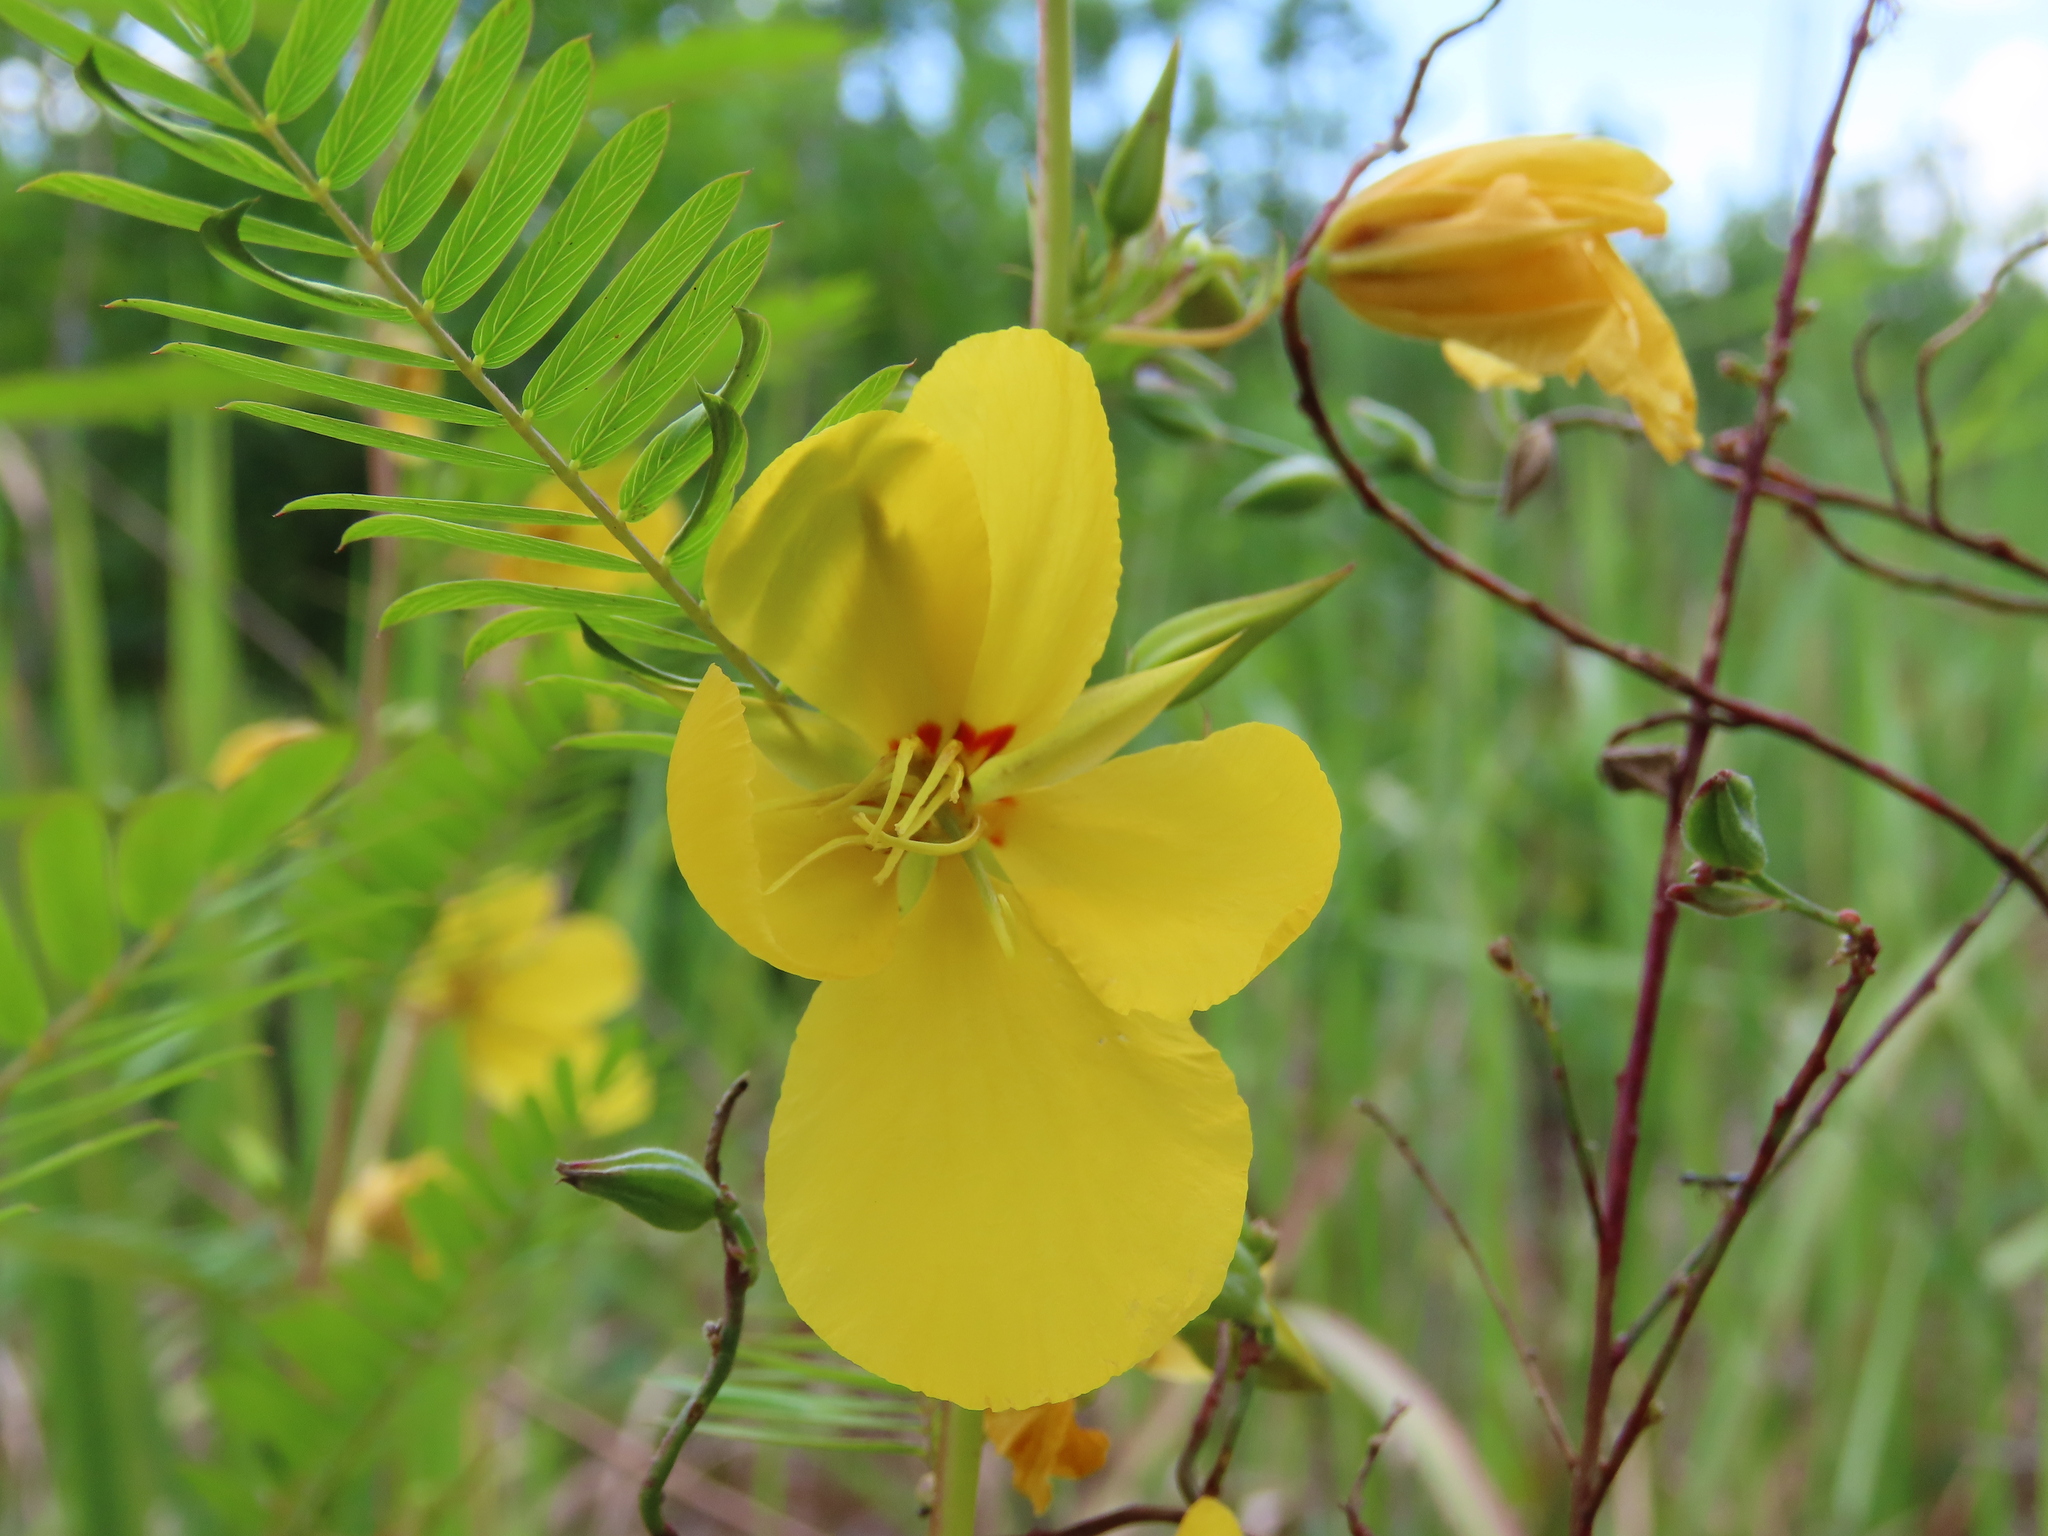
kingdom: Plantae
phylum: Tracheophyta
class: Magnoliopsida
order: Fabales
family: Fabaceae
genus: Chamaecrista
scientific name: Chamaecrista fasciculata
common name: Golden cassia
